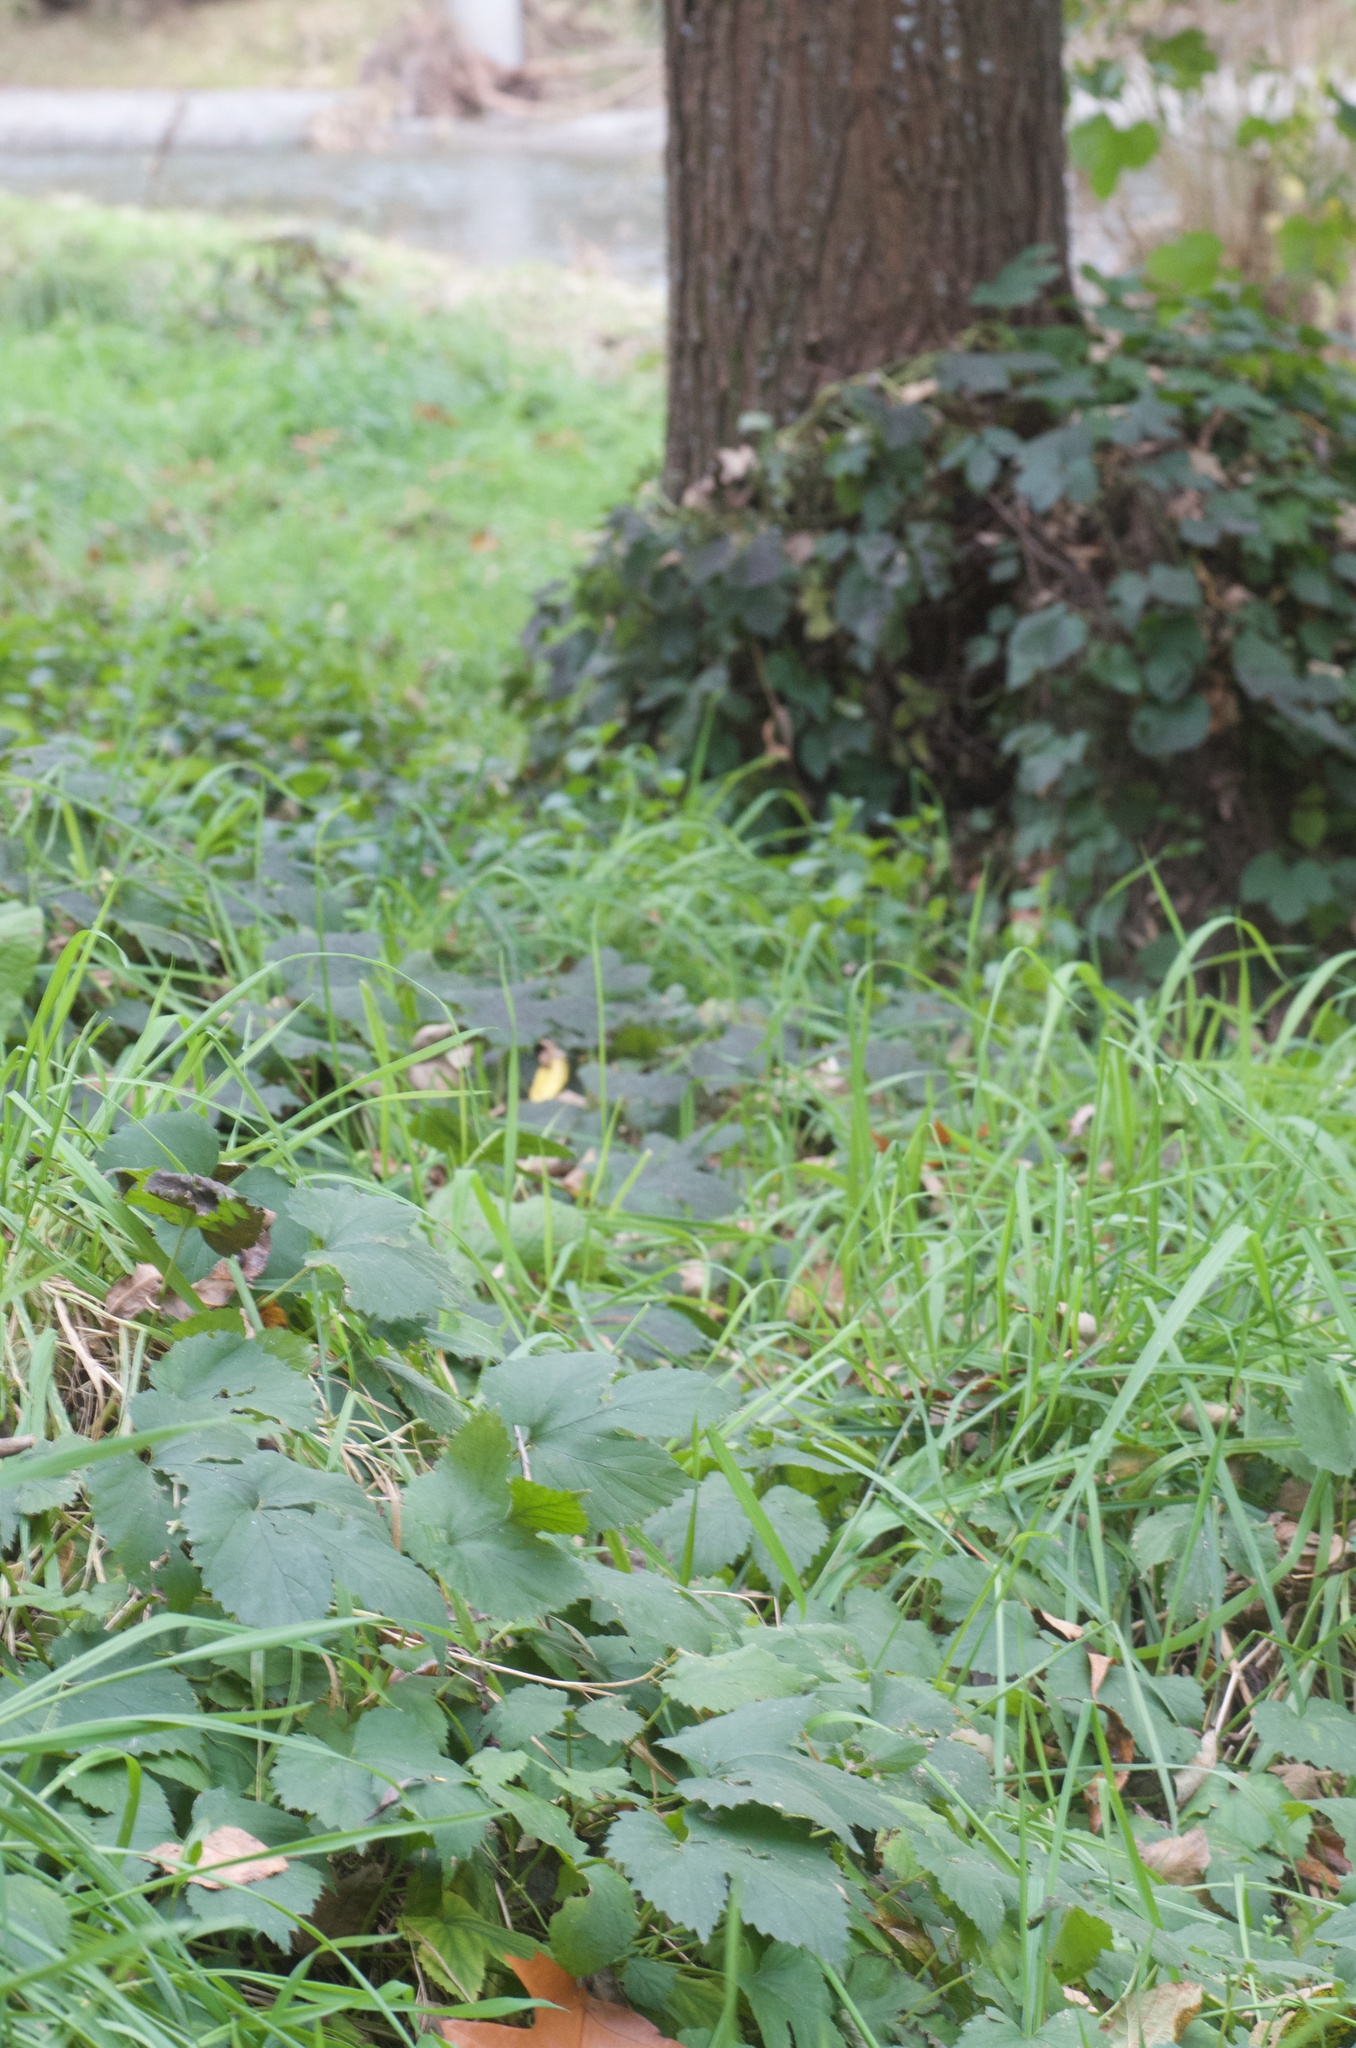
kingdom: Plantae
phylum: Tracheophyta
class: Magnoliopsida
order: Rosales
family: Cannabaceae
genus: Humulus
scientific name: Humulus lupulus
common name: Hop
